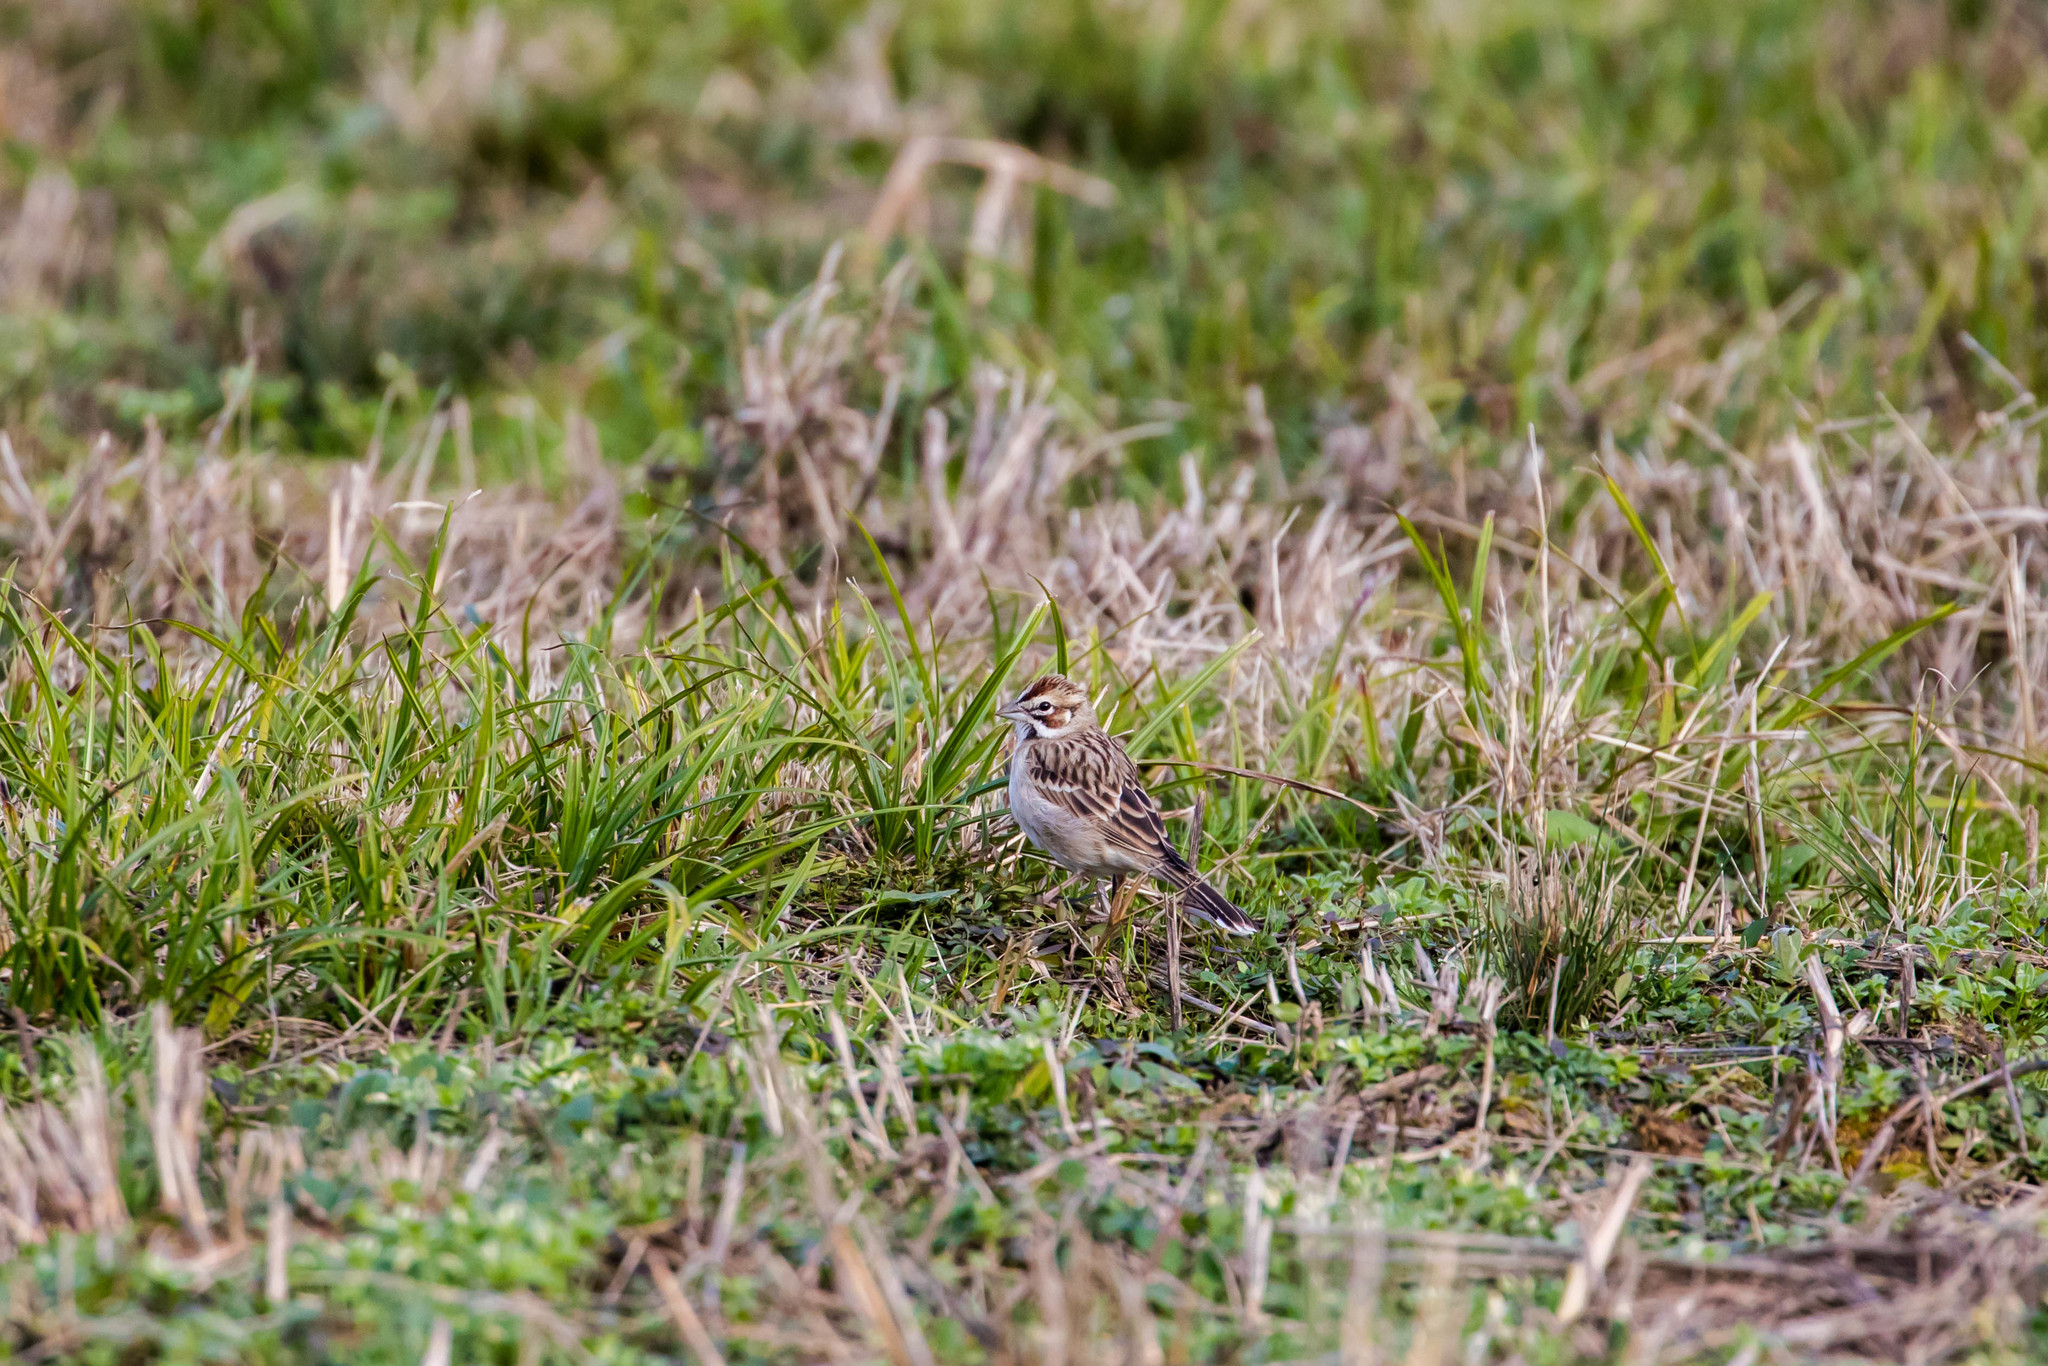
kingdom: Animalia
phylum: Chordata
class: Aves
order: Passeriformes
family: Passerellidae
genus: Chondestes
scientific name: Chondestes grammacus
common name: Lark sparrow
